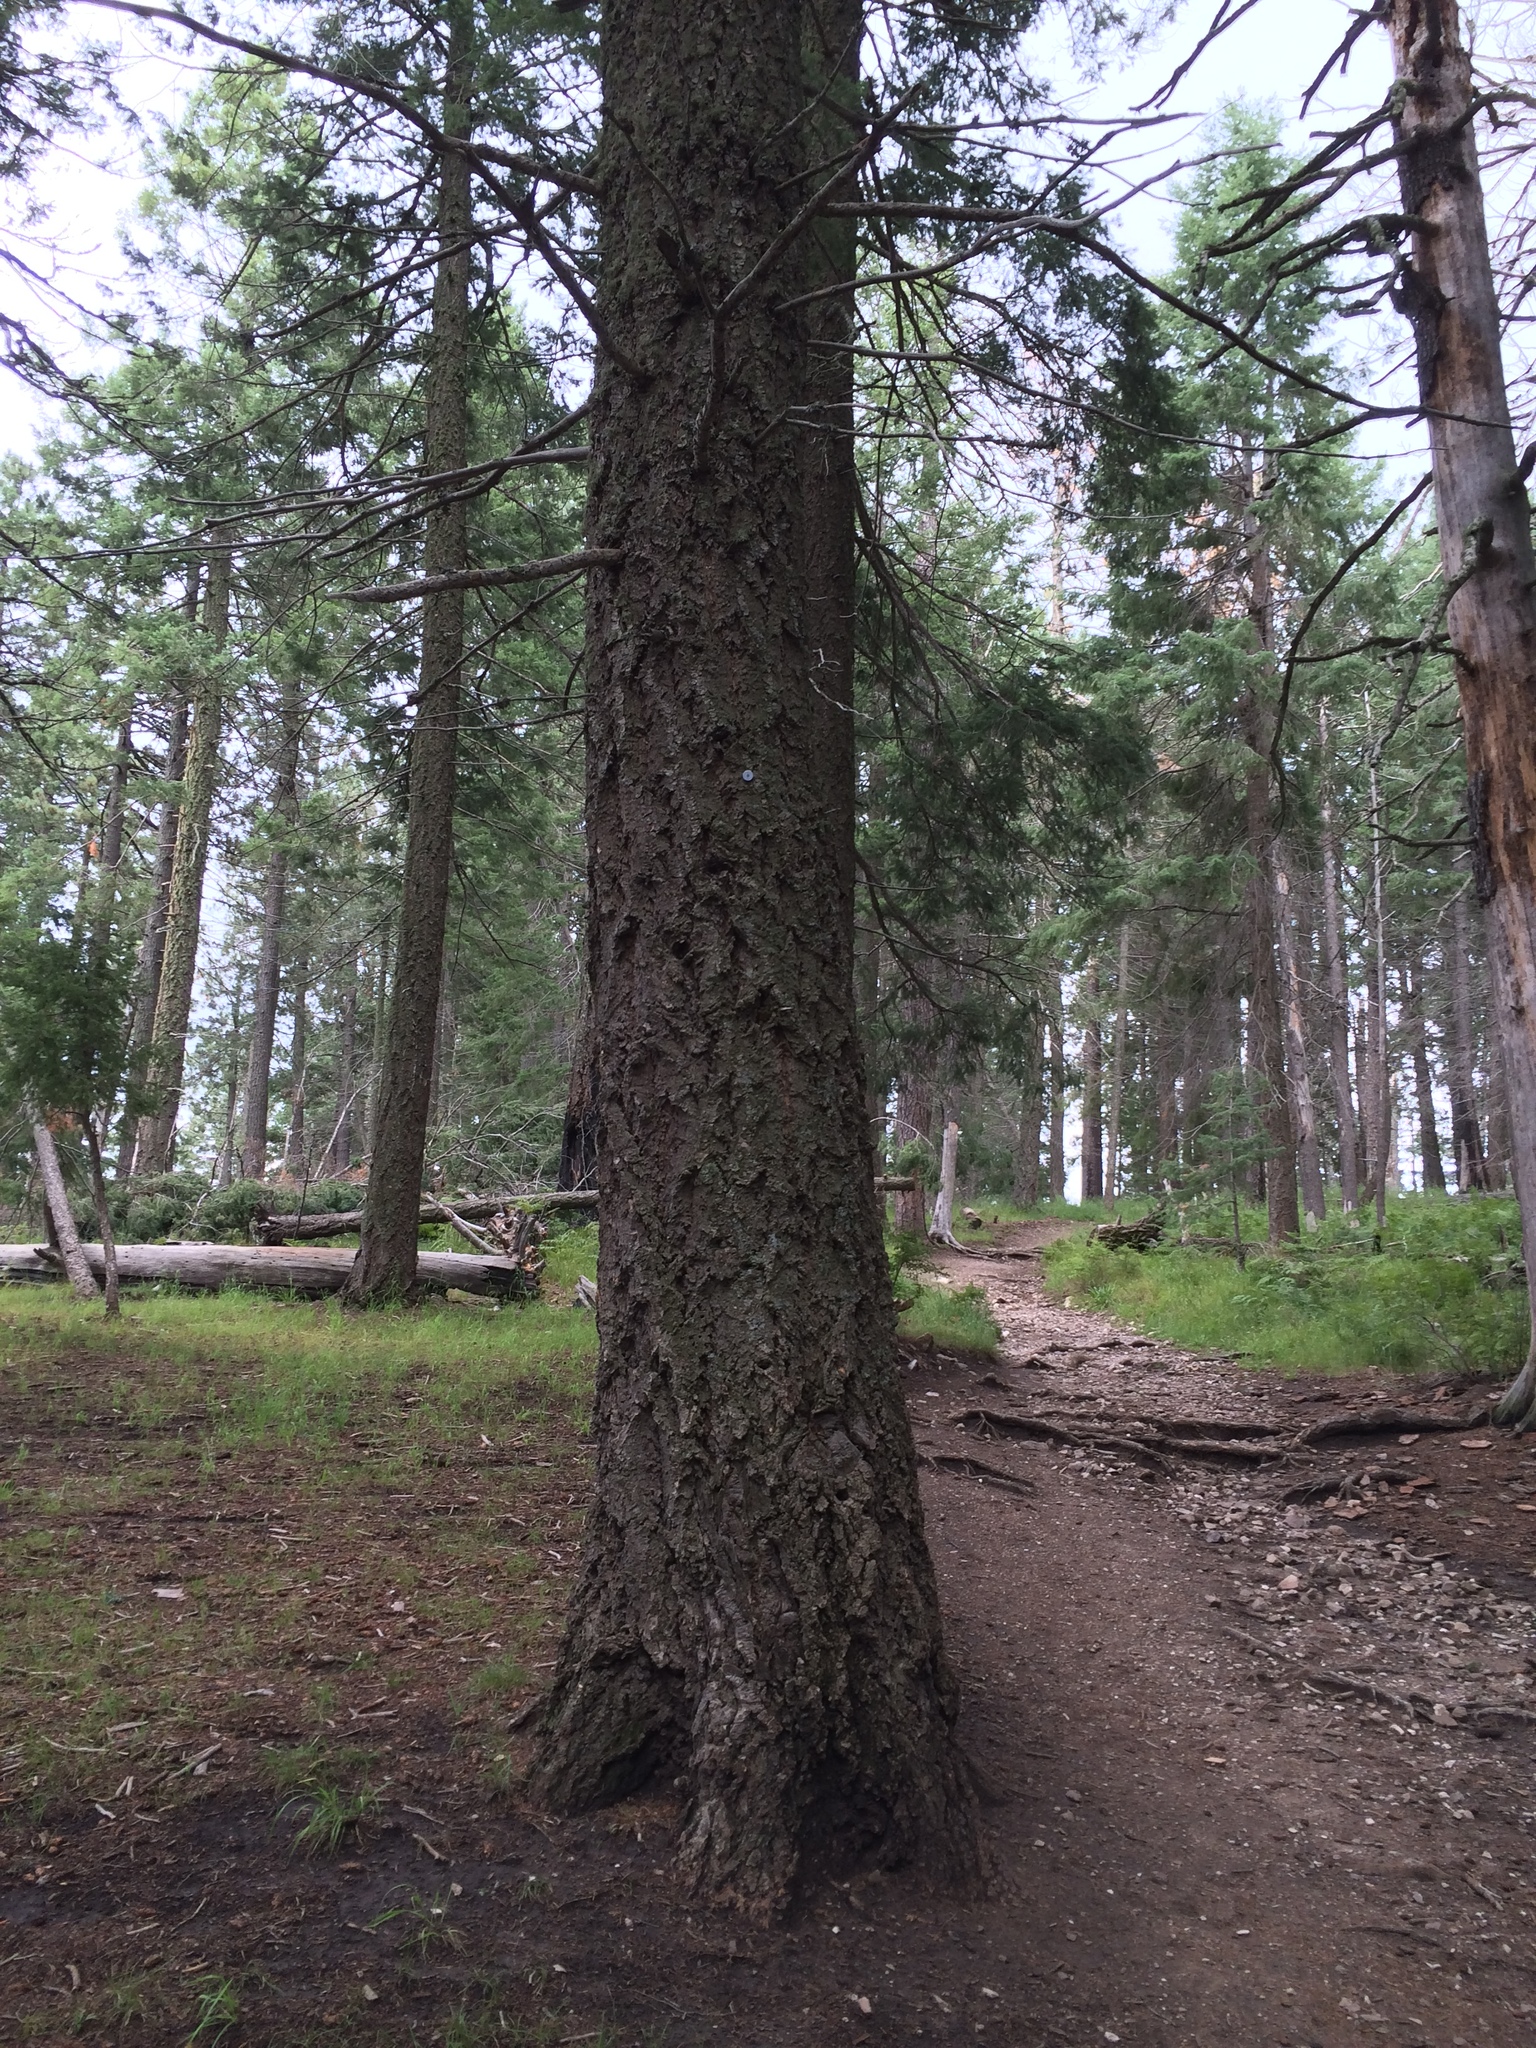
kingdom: Plantae
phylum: Tracheophyta
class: Pinopsida
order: Pinales
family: Pinaceae
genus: Pseudotsuga
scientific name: Pseudotsuga menziesii
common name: Douglas fir
